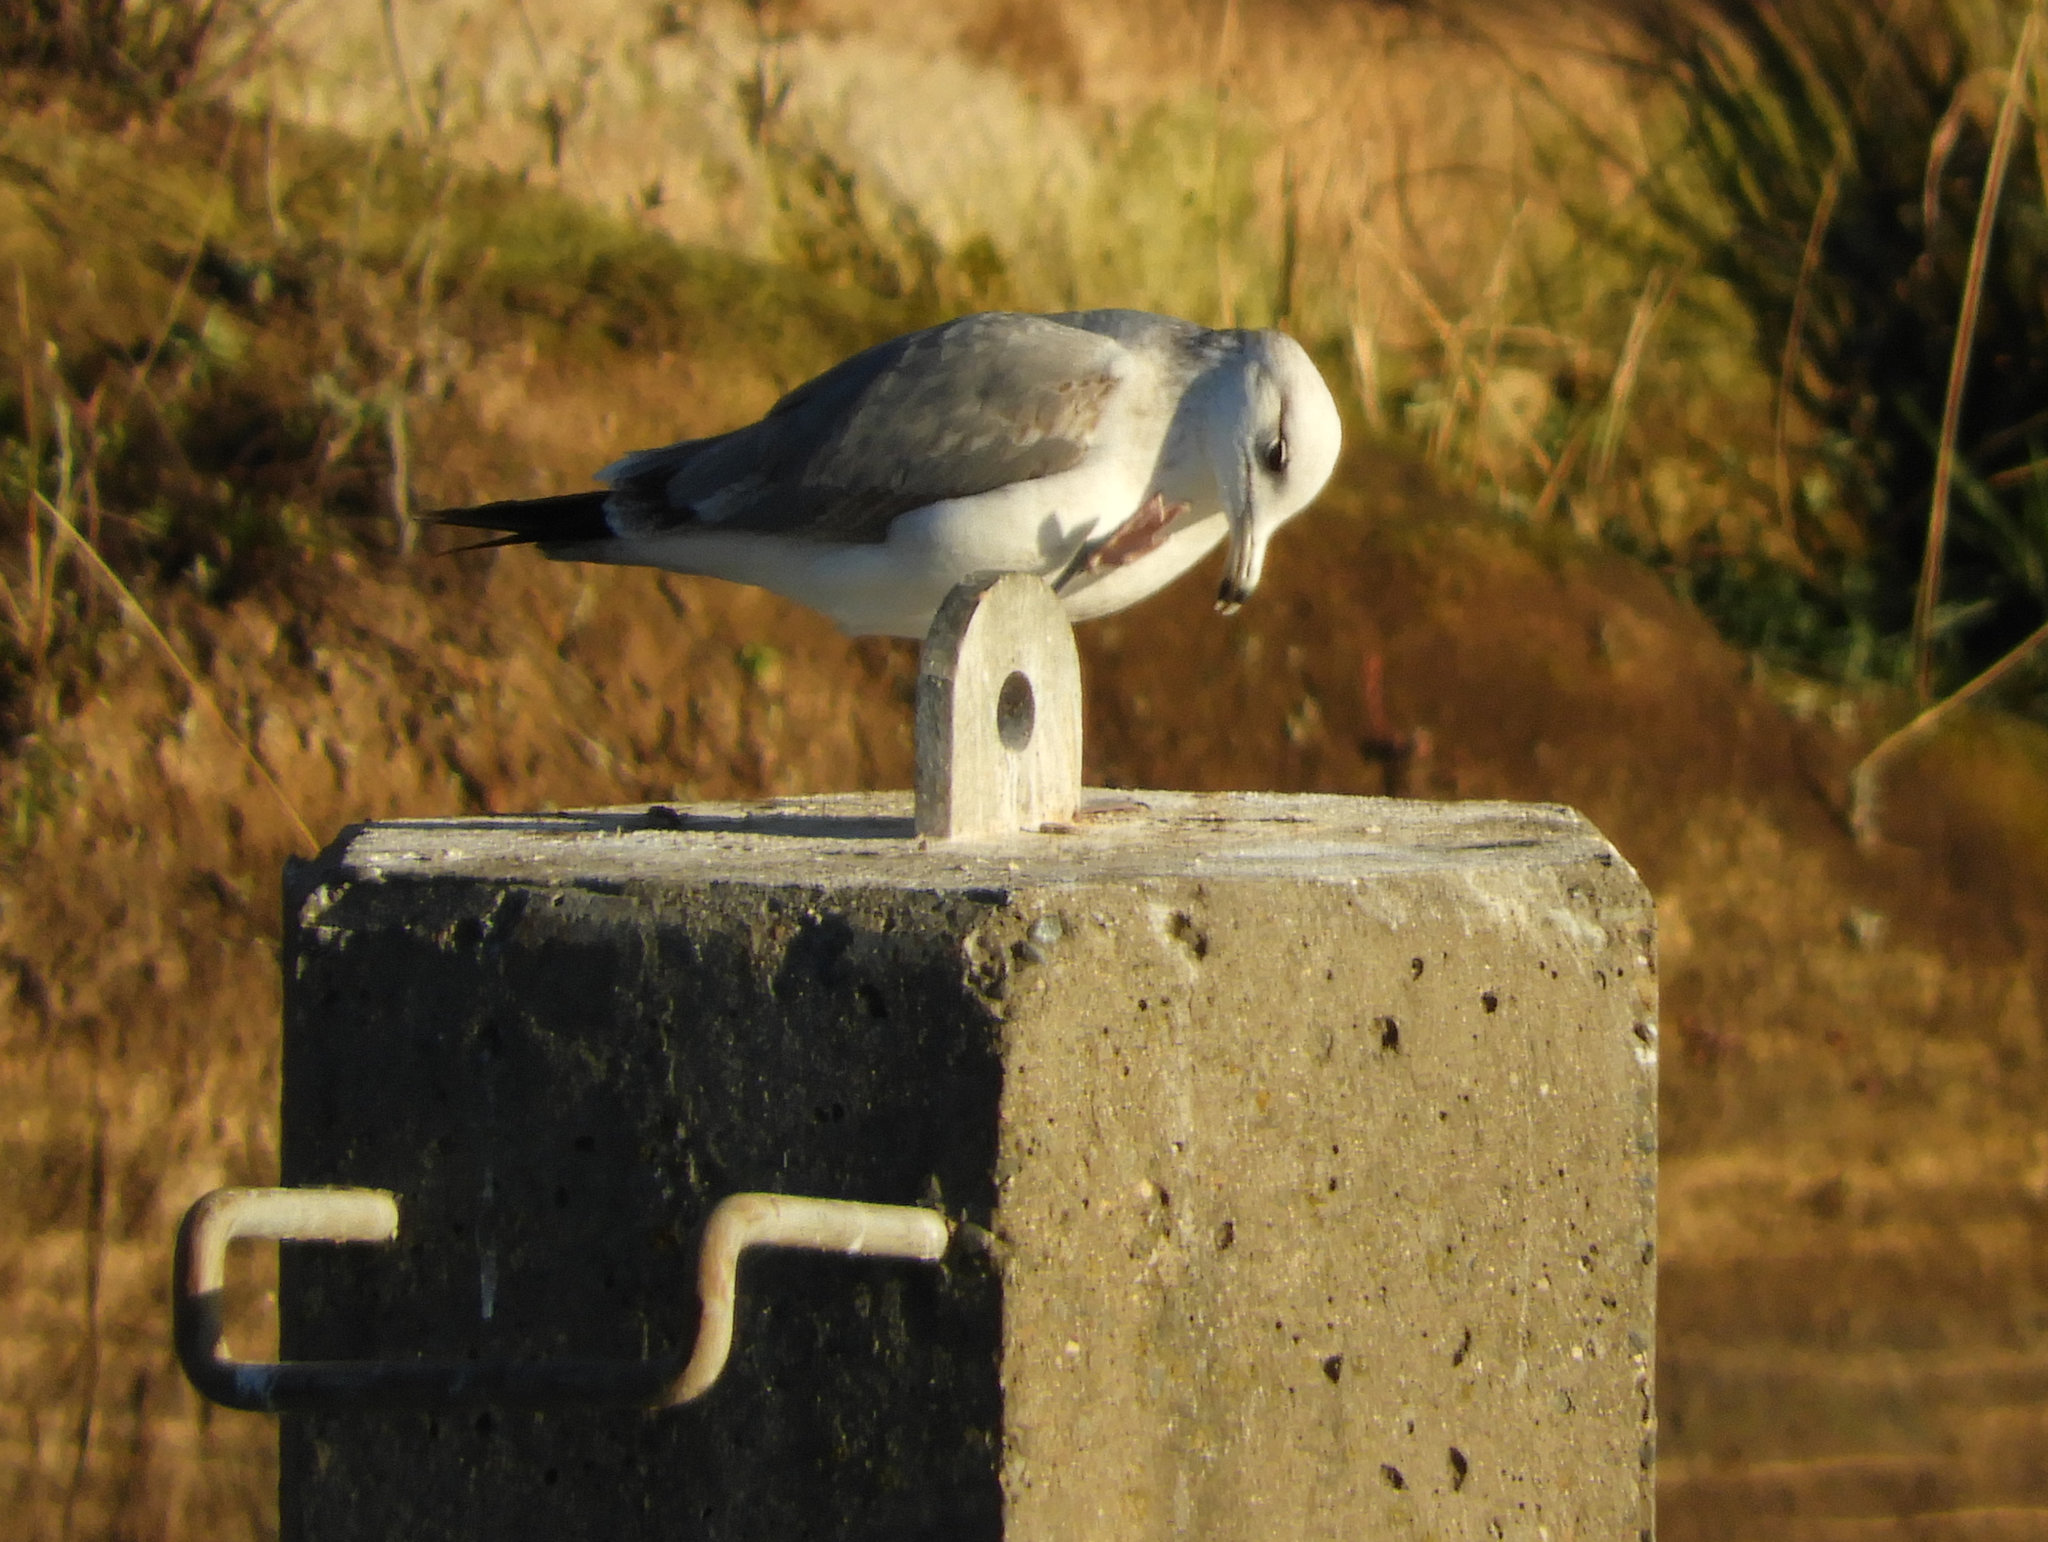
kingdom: Animalia
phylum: Chordata
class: Aves
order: Charadriiformes
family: Laridae
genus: Larus
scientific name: Larus delawarensis
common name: Ring-billed gull
